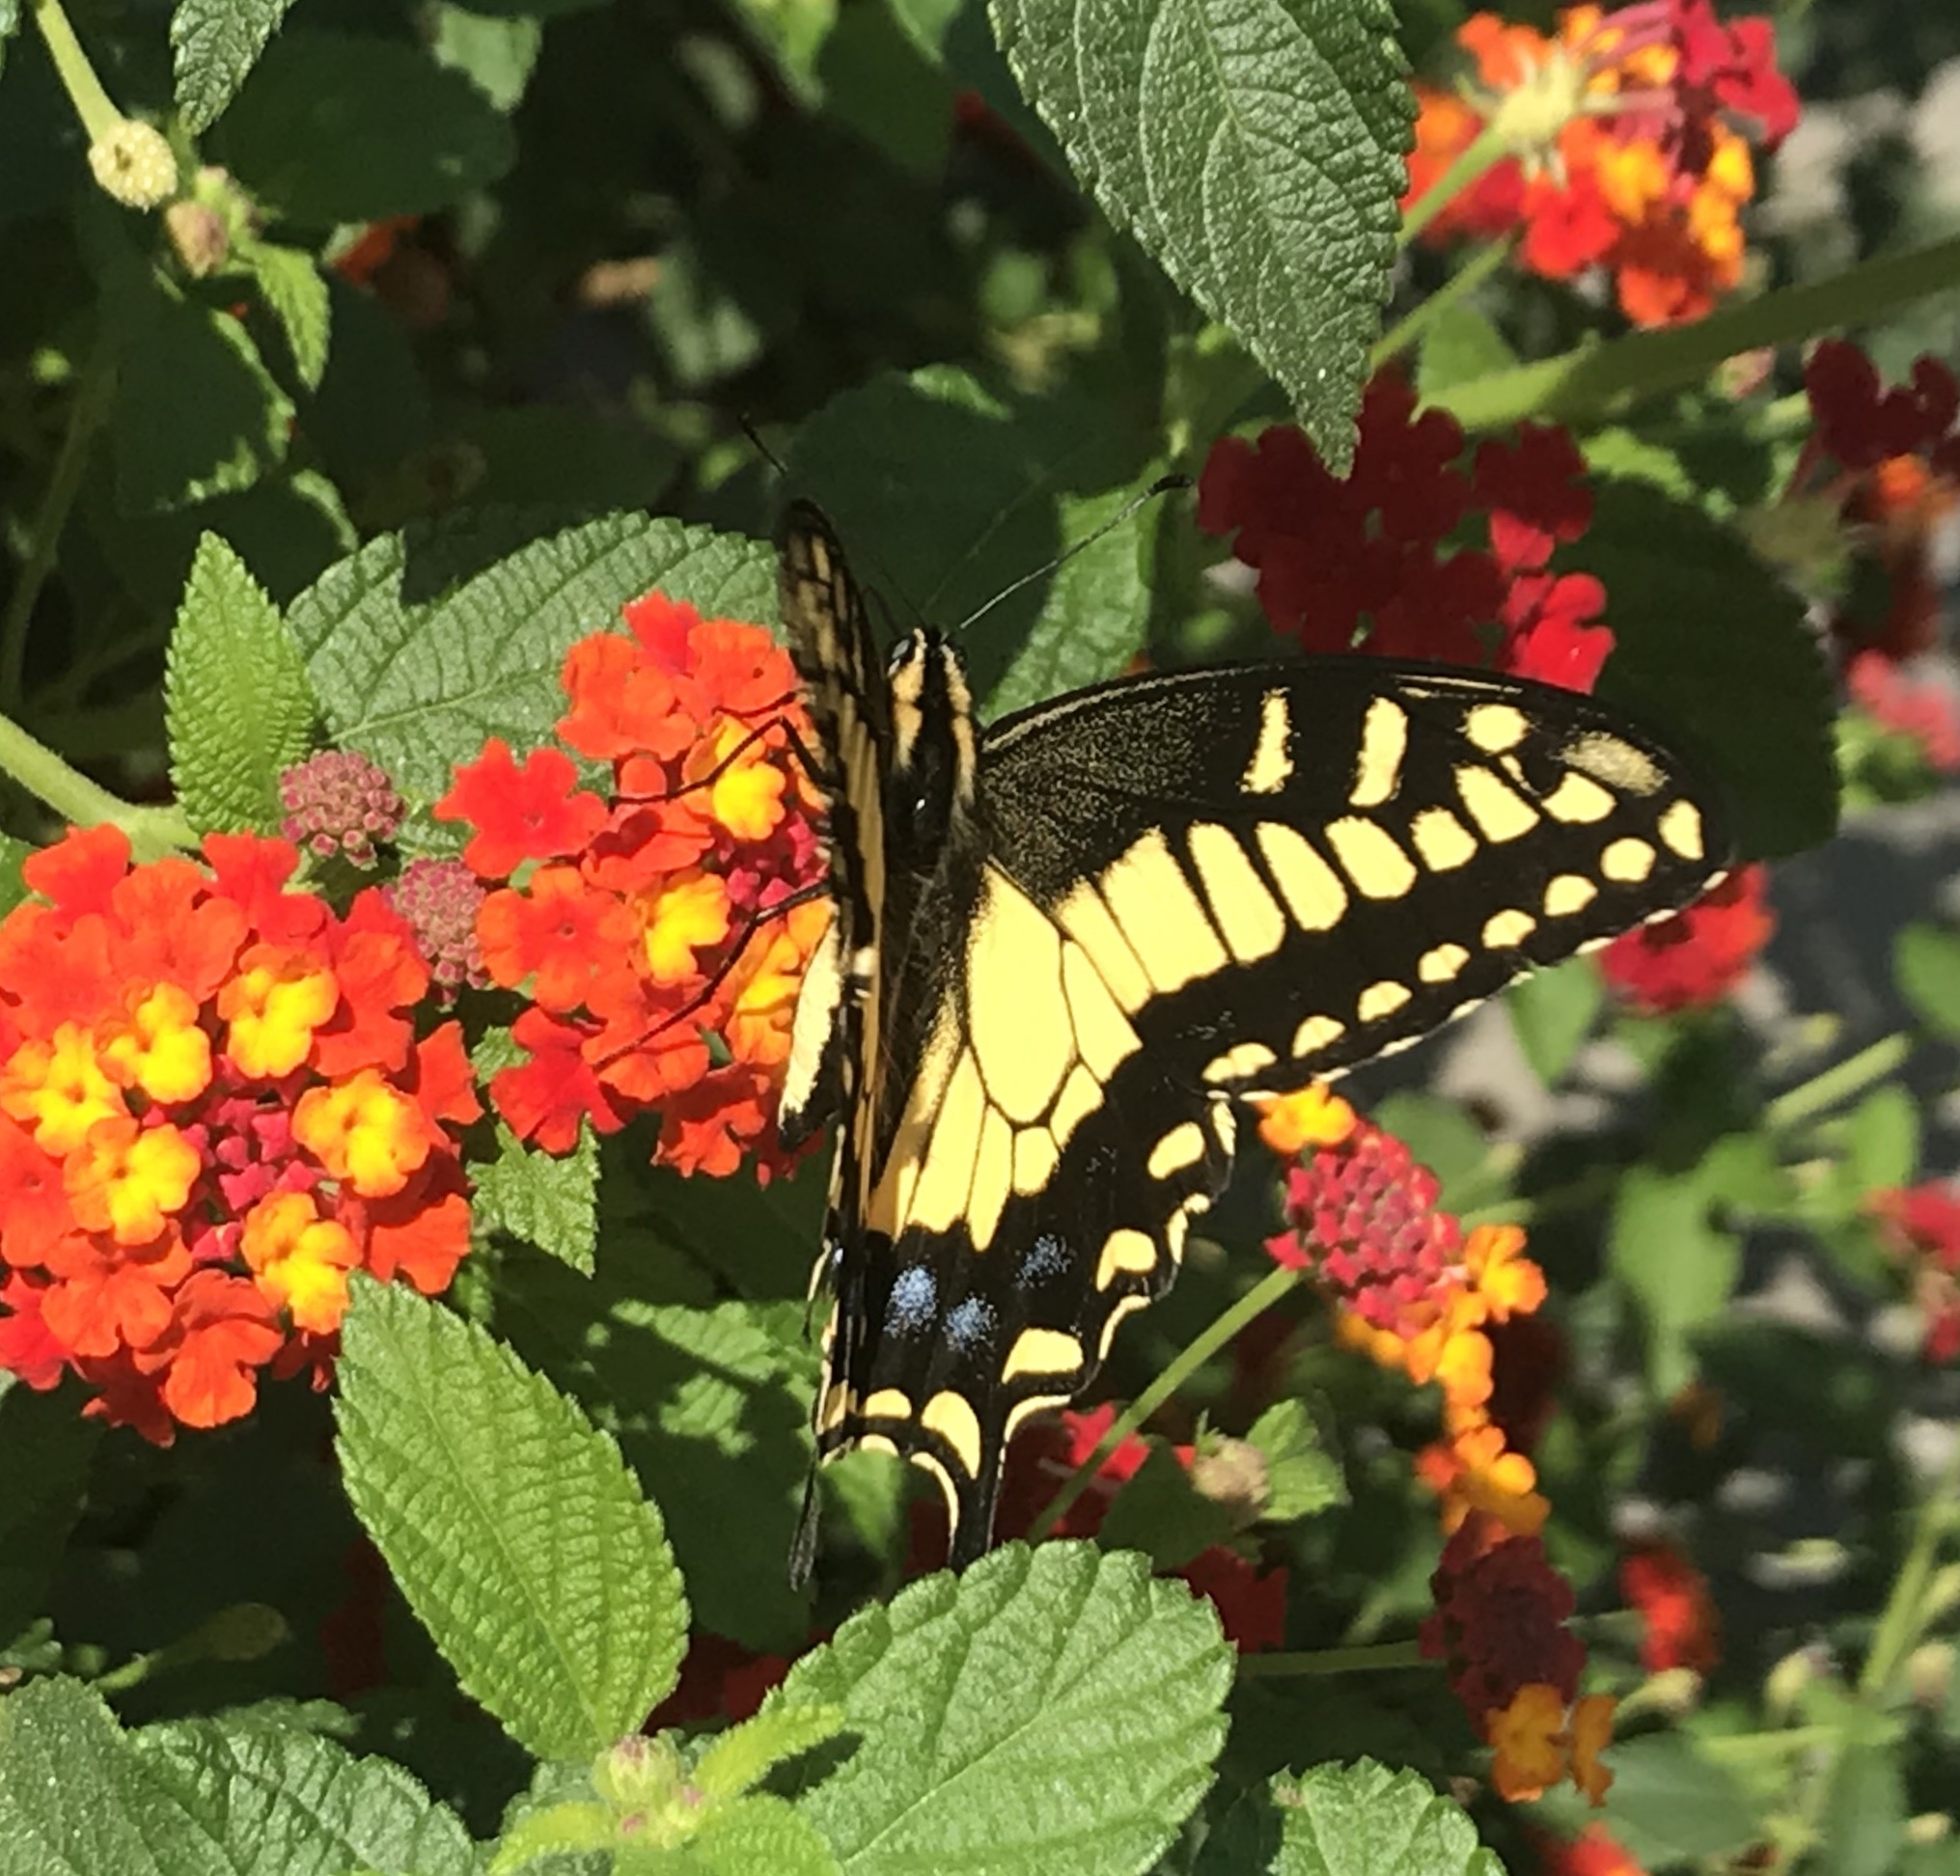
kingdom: Animalia
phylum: Arthropoda
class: Insecta
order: Lepidoptera
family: Papilionidae
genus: Papilio
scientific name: Papilio zelicaon
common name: Anise swallowtail
